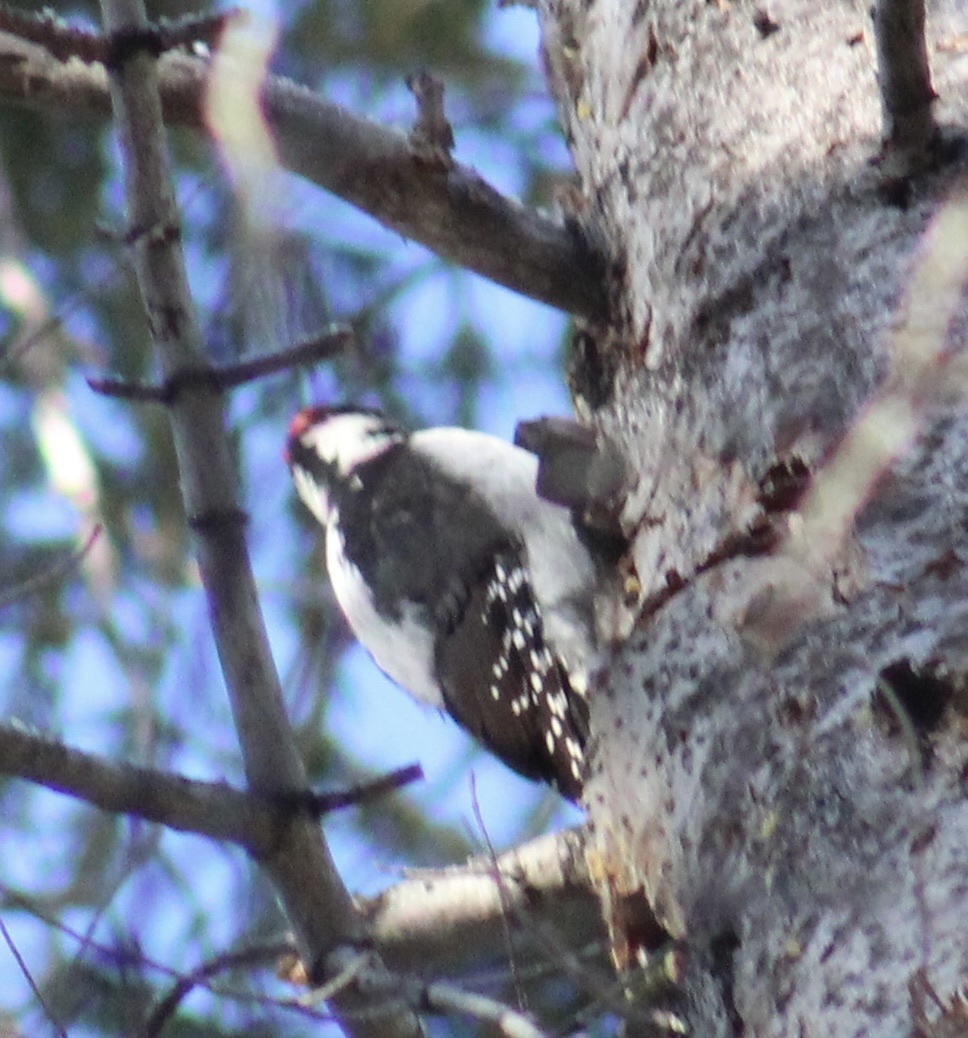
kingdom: Animalia
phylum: Chordata
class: Aves
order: Piciformes
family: Picidae
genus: Leuconotopicus
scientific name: Leuconotopicus villosus
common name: Hairy woodpecker
